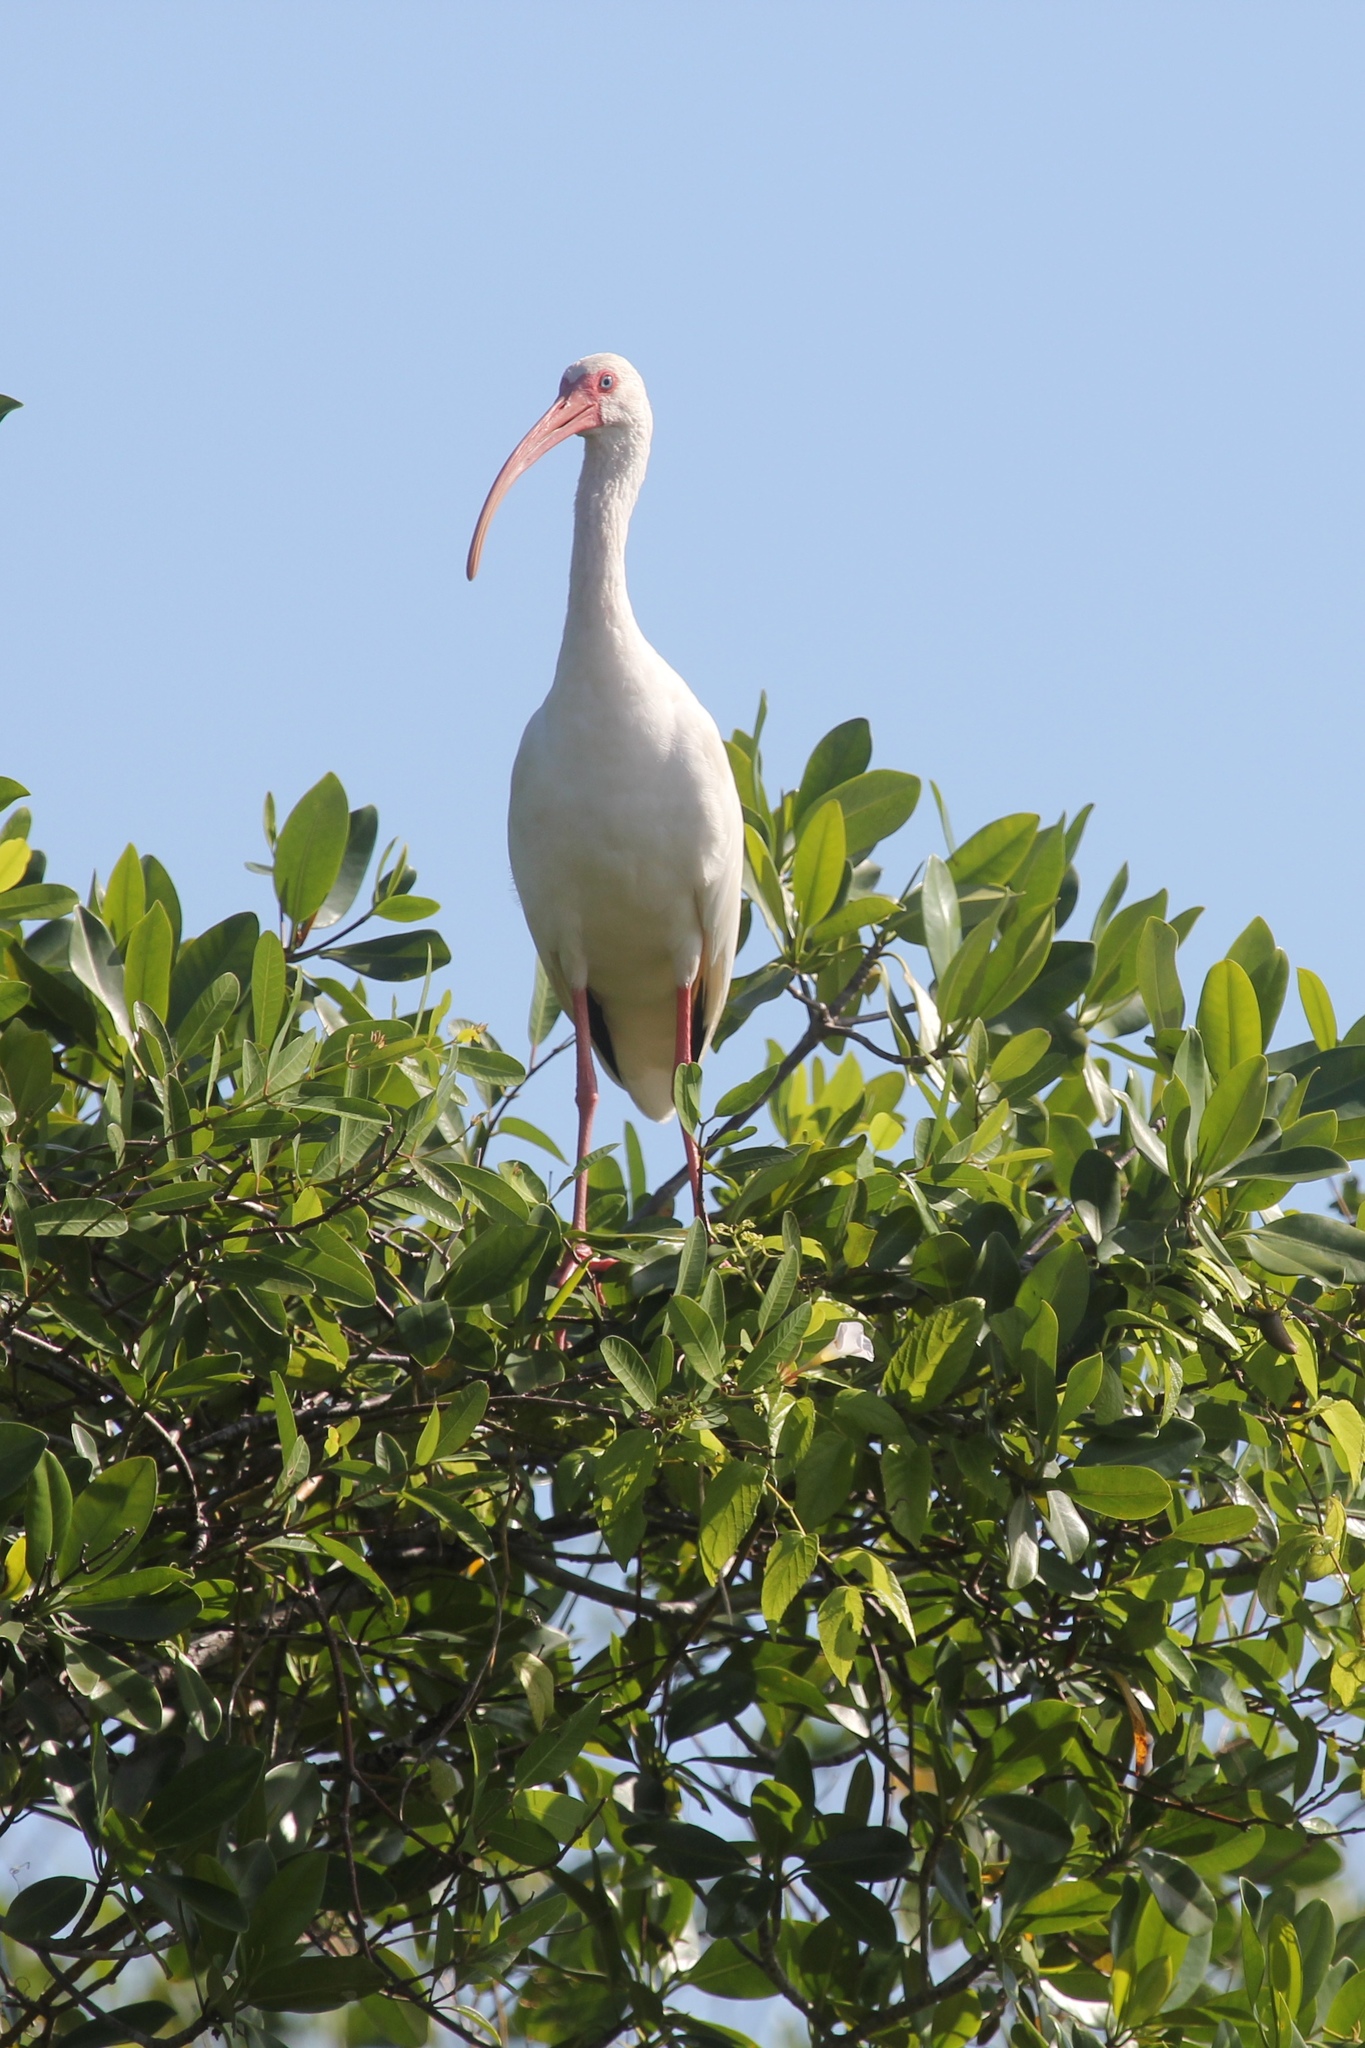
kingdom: Animalia
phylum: Chordata
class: Aves
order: Pelecaniformes
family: Threskiornithidae
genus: Eudocimus
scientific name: Eudocimus albus
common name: White ibis
